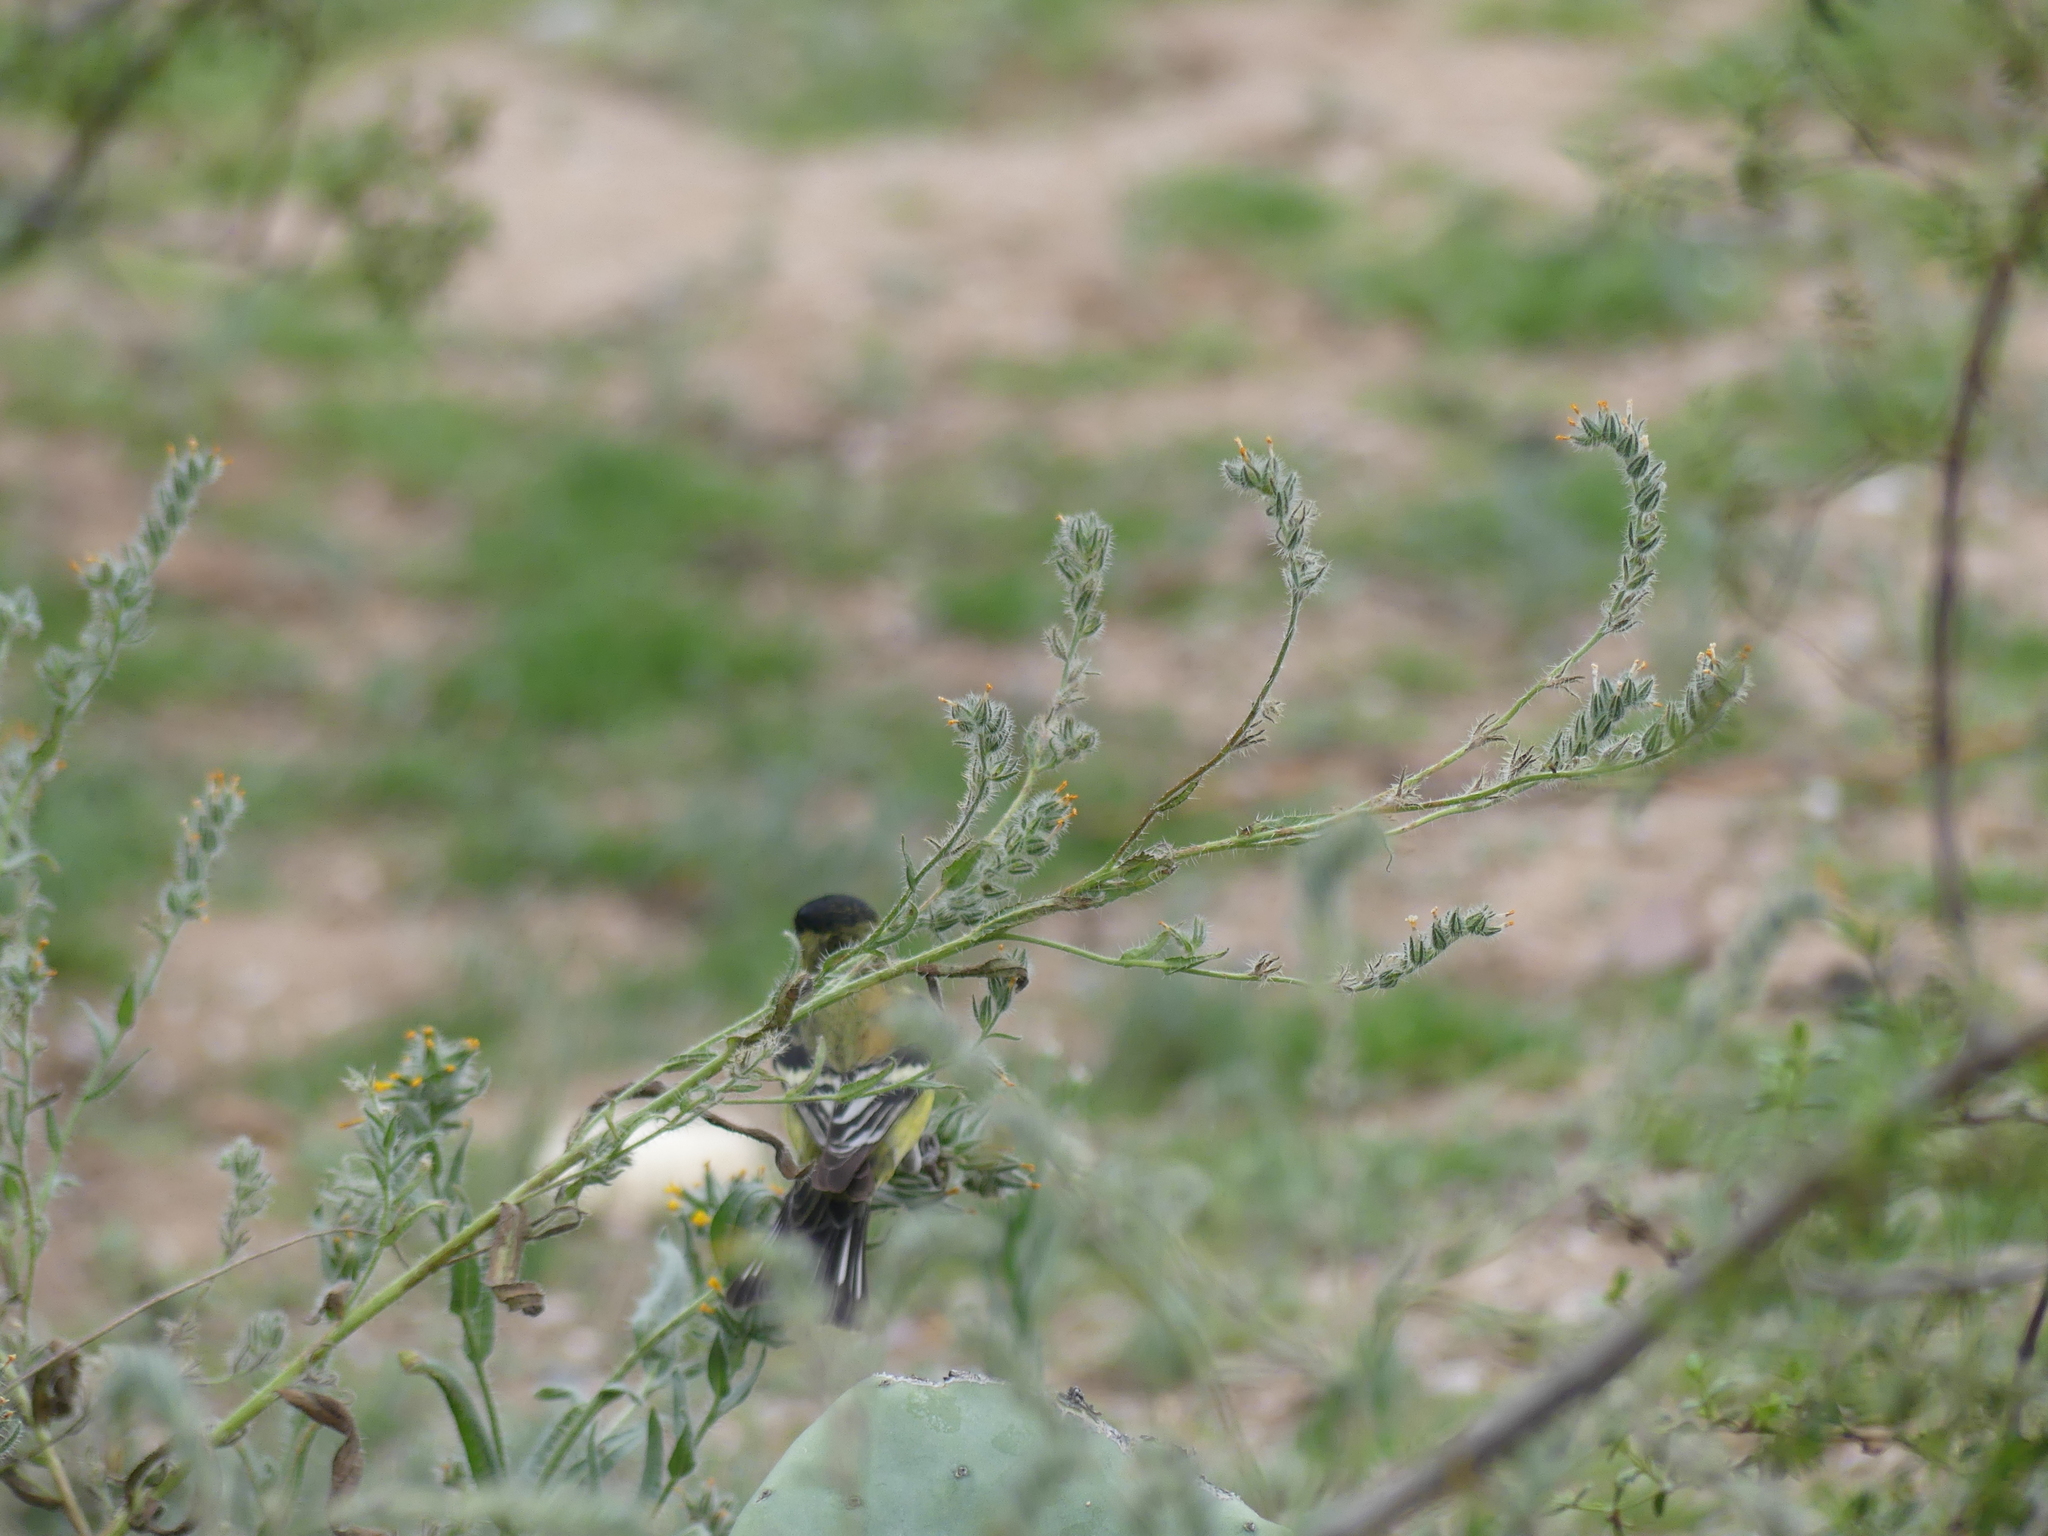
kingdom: Animalia
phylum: Chordata
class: Aves
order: Passeriformes
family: Fringillidae
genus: Spinus
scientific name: Spinus psaltria
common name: Lesser goldfinch
